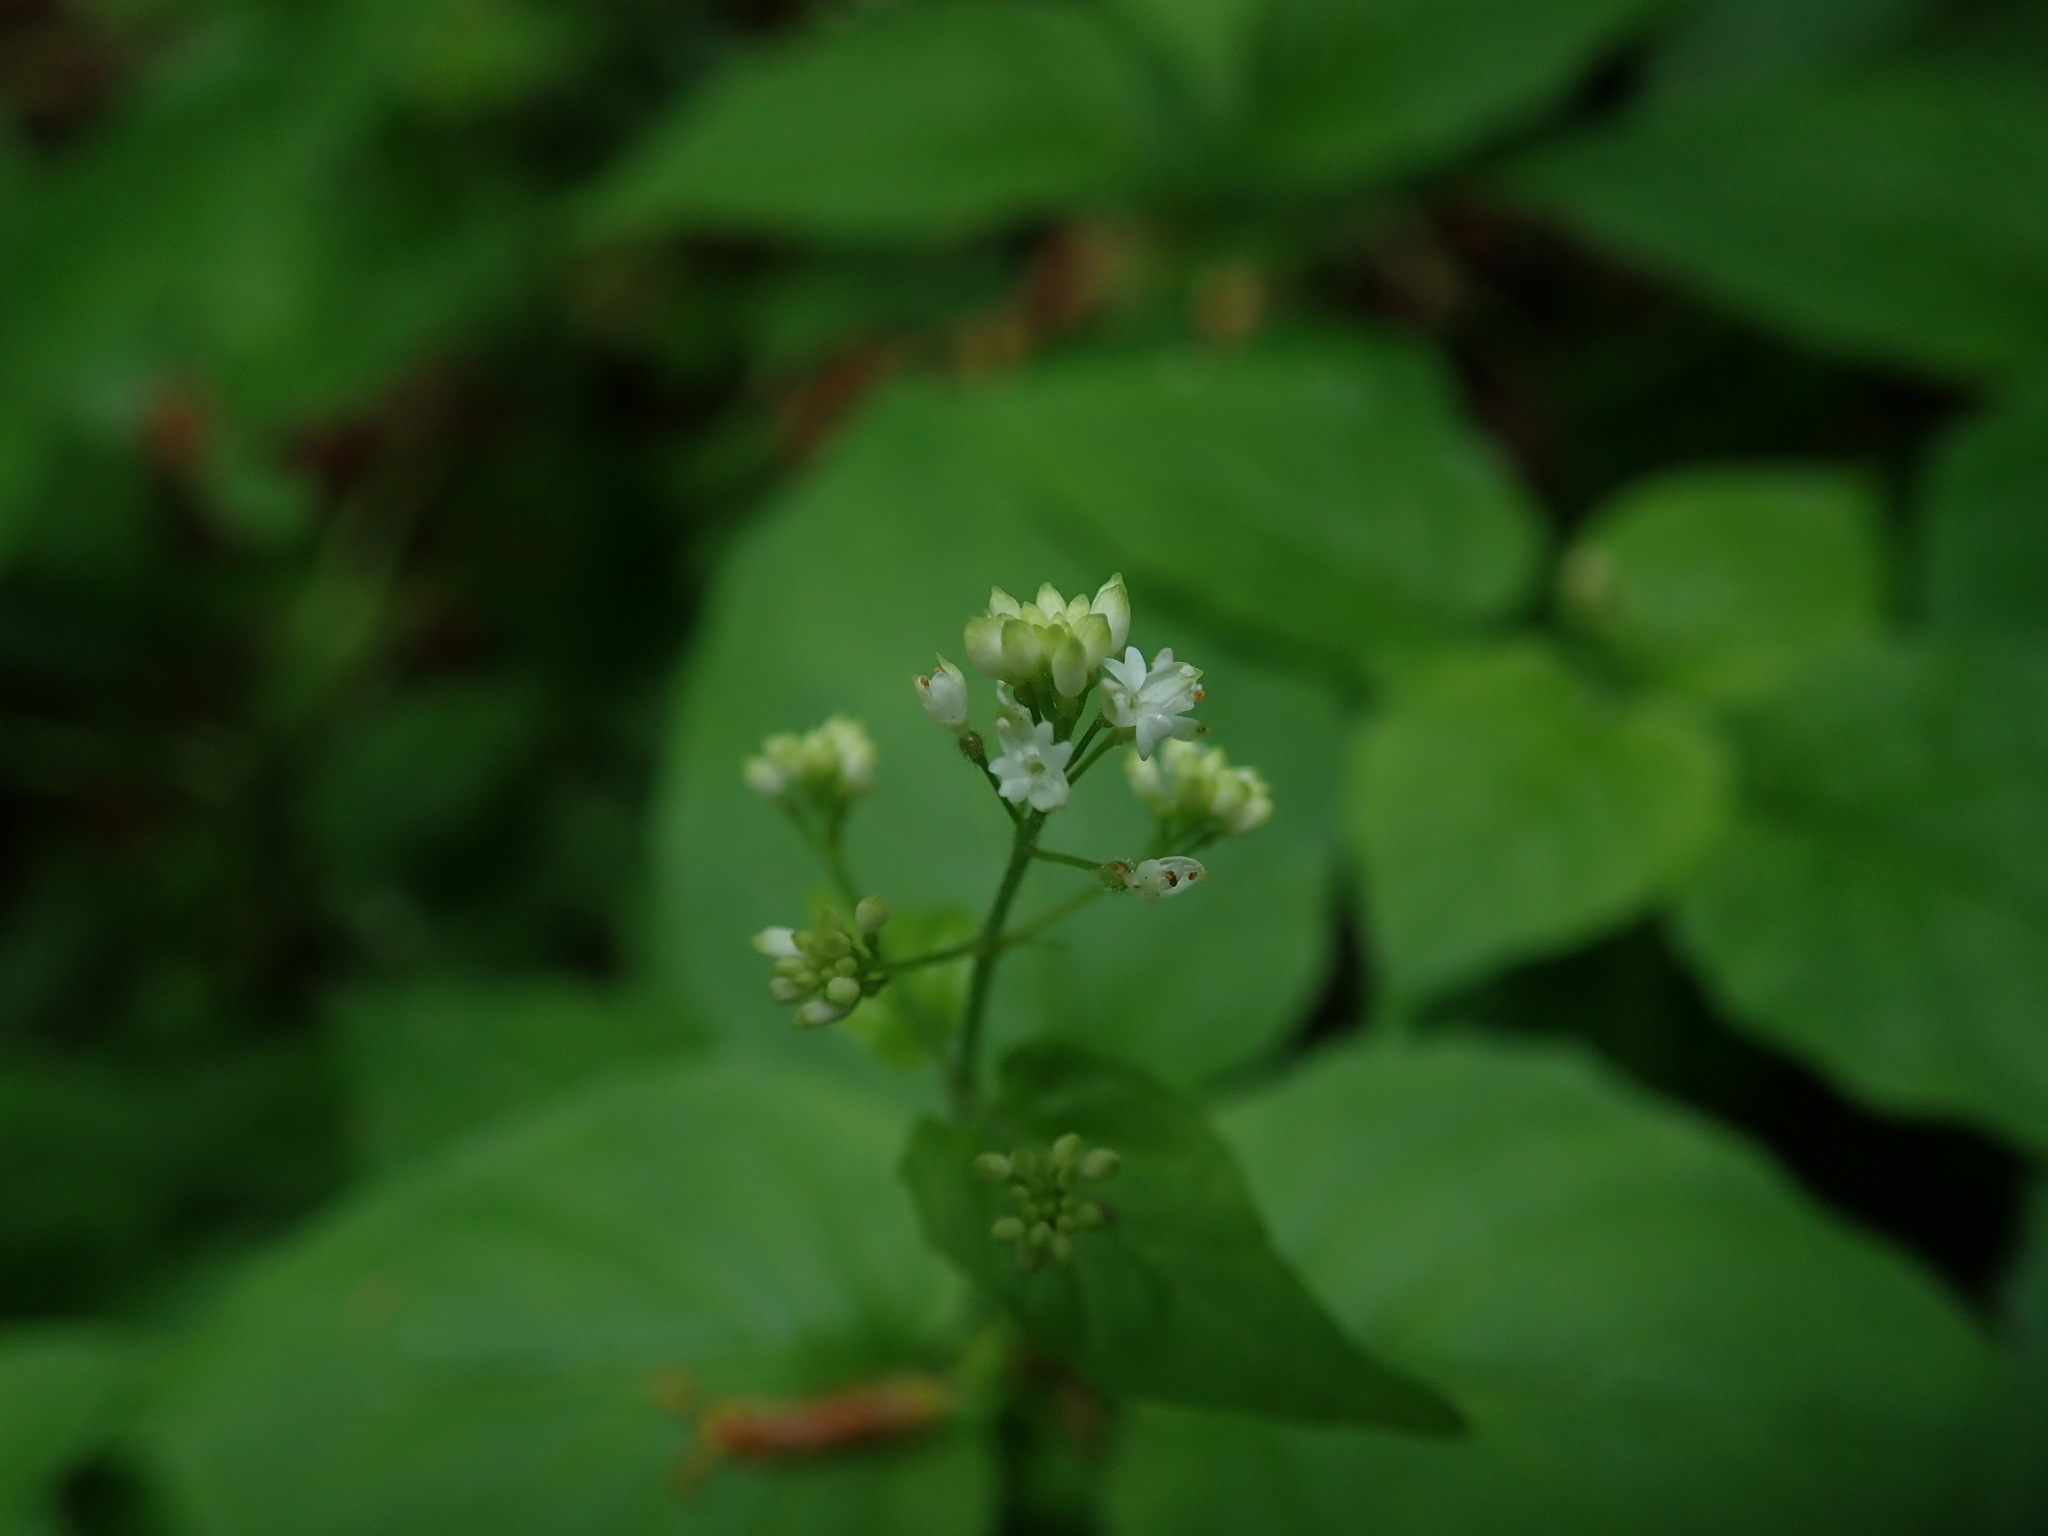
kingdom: Plantae
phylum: Tracheophyta
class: Magnoliopsida
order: Myrtales
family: Onagraceae
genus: Circaea
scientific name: Circaea alpina
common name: Alpine enchanter's-nightshade
